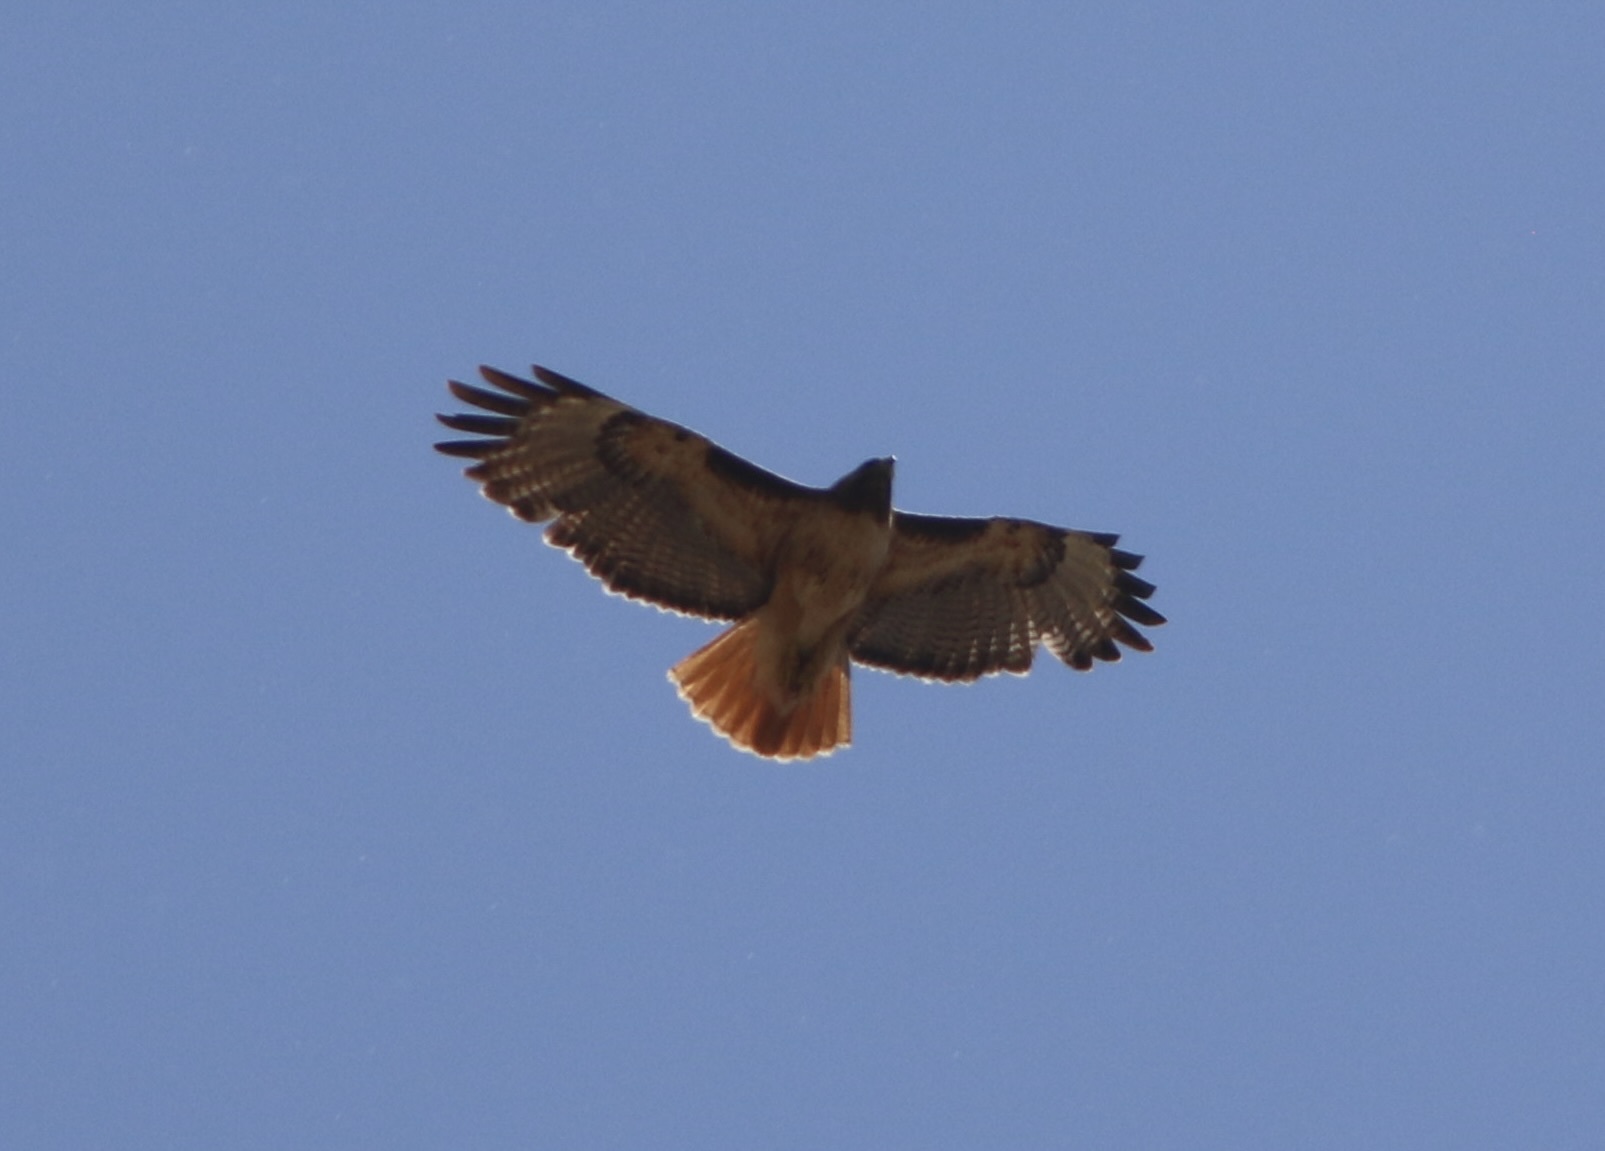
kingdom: Animalia
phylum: Chordata
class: Aves
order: Accipitriformes
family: Accipitridae
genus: Buteo
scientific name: Buteo jamaicensis
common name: Red-tailed hawk
